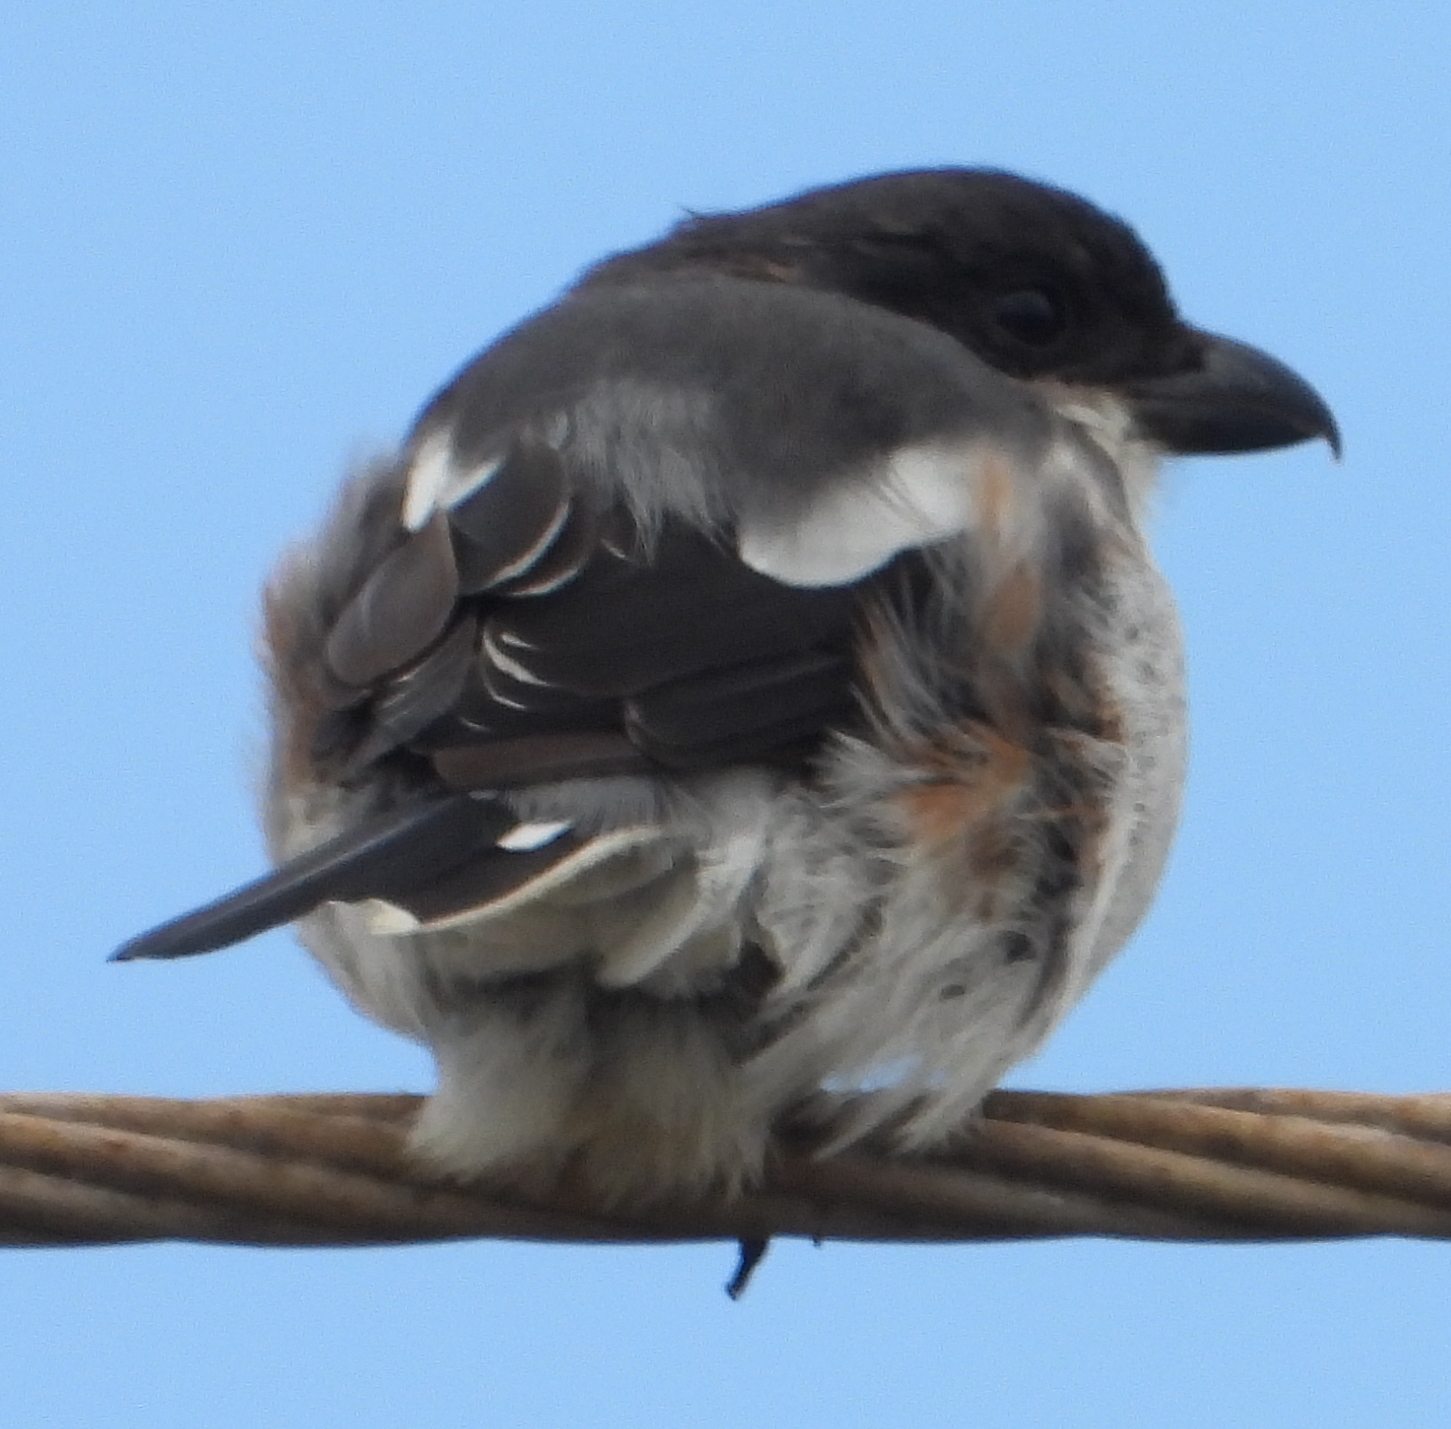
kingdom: Animalia
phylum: Chordata
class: Aves
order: Passeriformes
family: Laniidae
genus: Lanius
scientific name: Lanius collaris
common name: Southern fiscal
